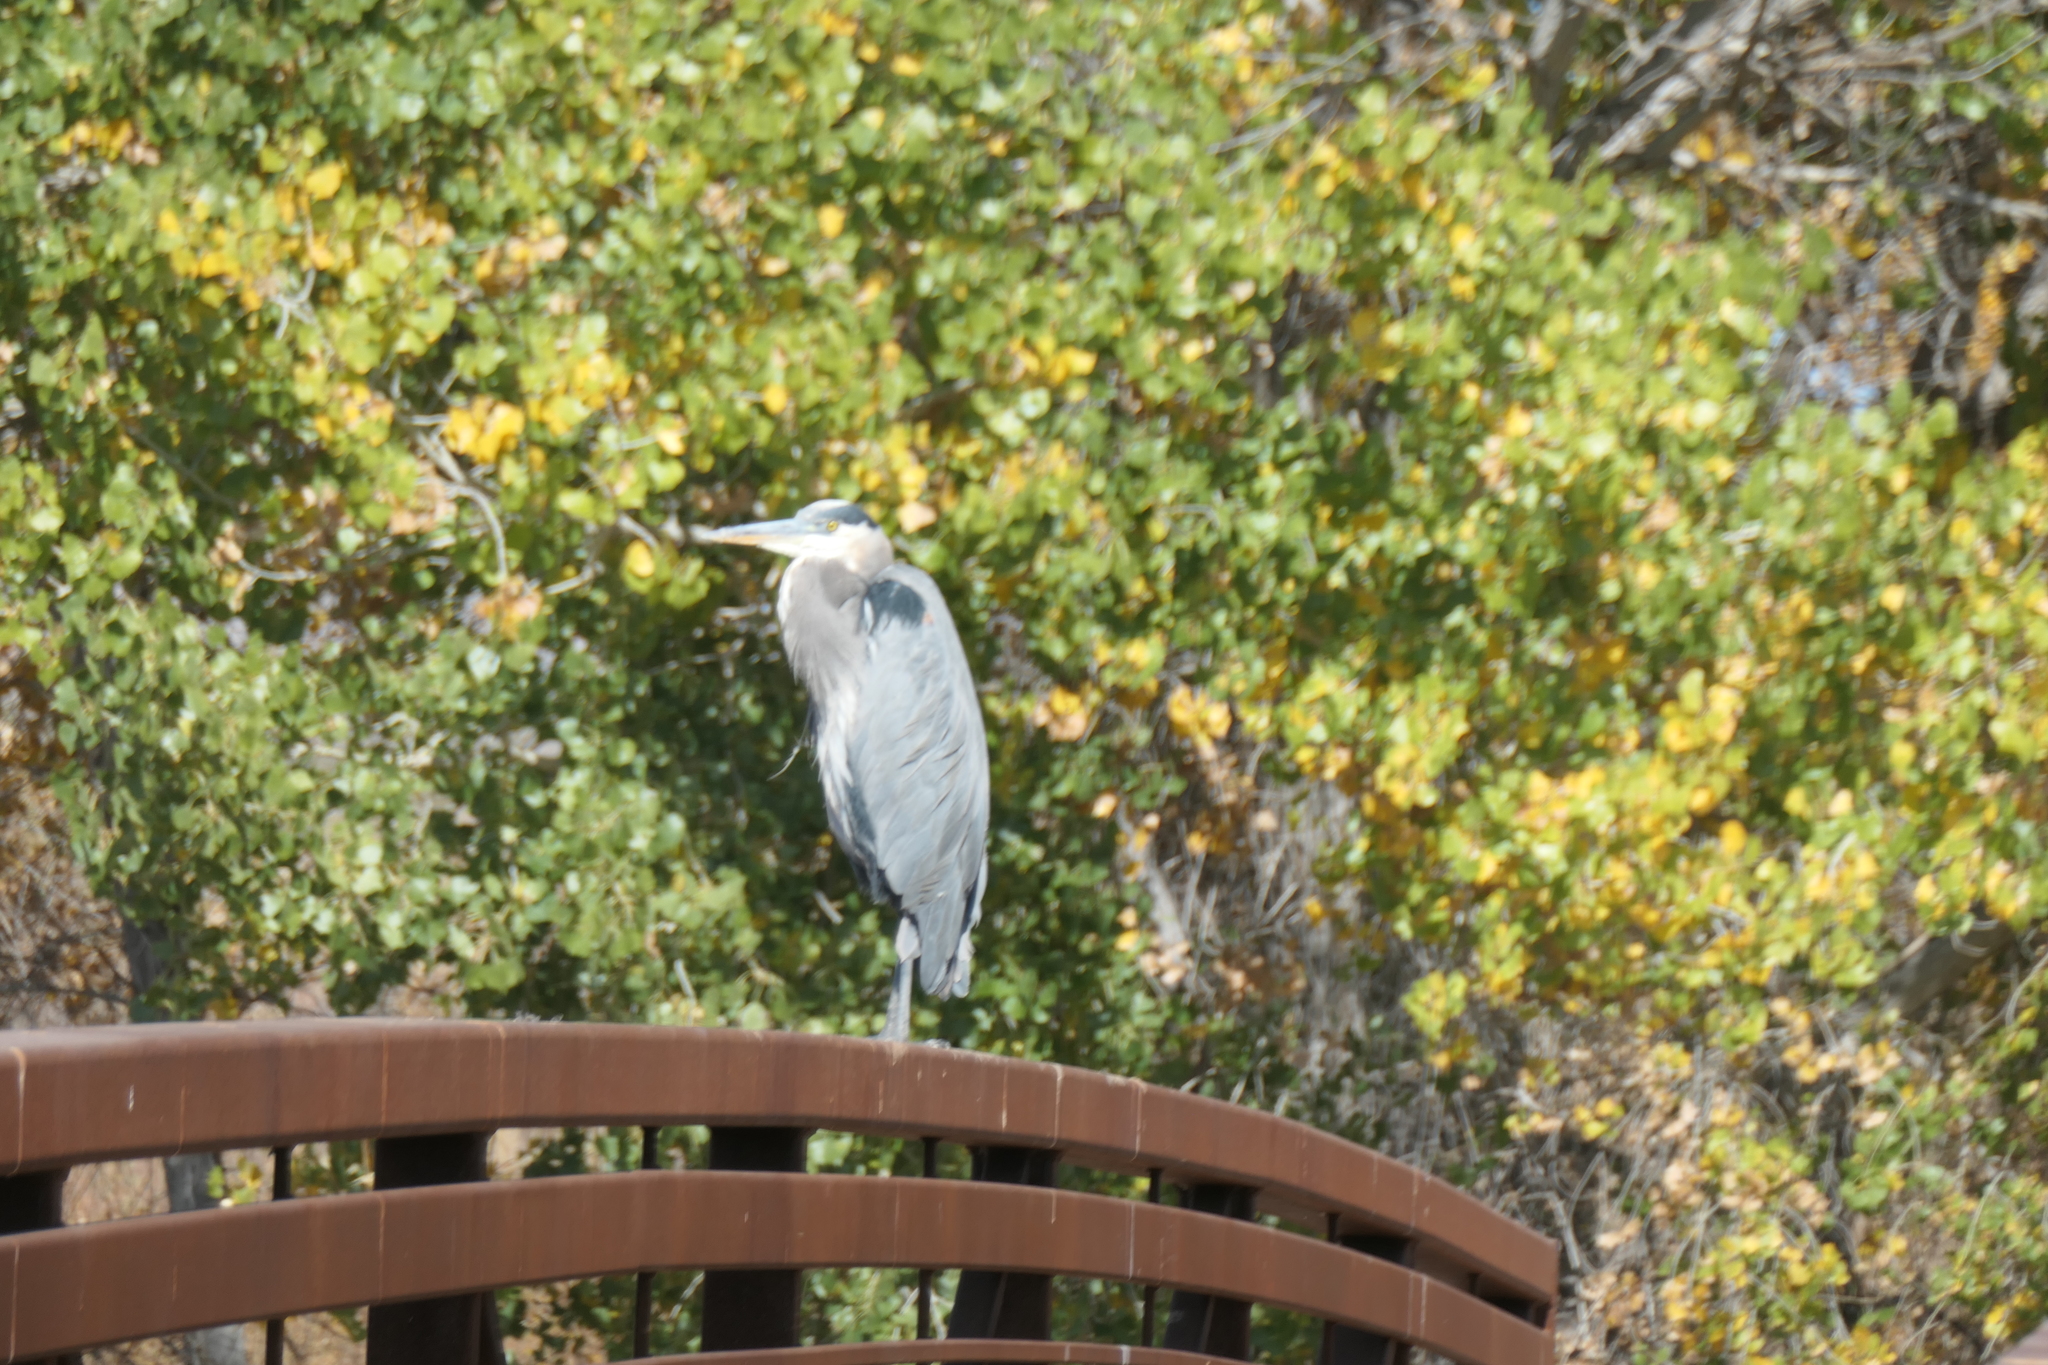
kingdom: Animalia
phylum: Chordata
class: Aves
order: Pelecaniformes
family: Ardeidae
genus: Ardea
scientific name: Ardea herodias
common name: Great blue heron
